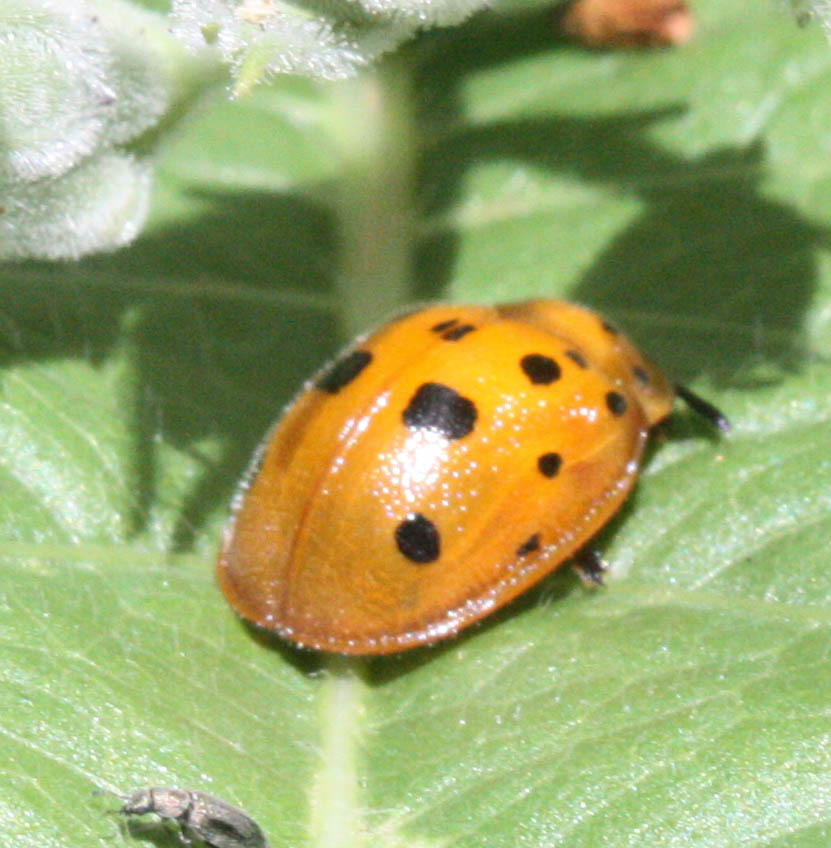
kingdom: Animalia
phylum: Arthropoda
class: Insecta
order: Coleoptera
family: Chrysomelidae
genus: Chelymorpha
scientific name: Chelymorpha phytophagica
